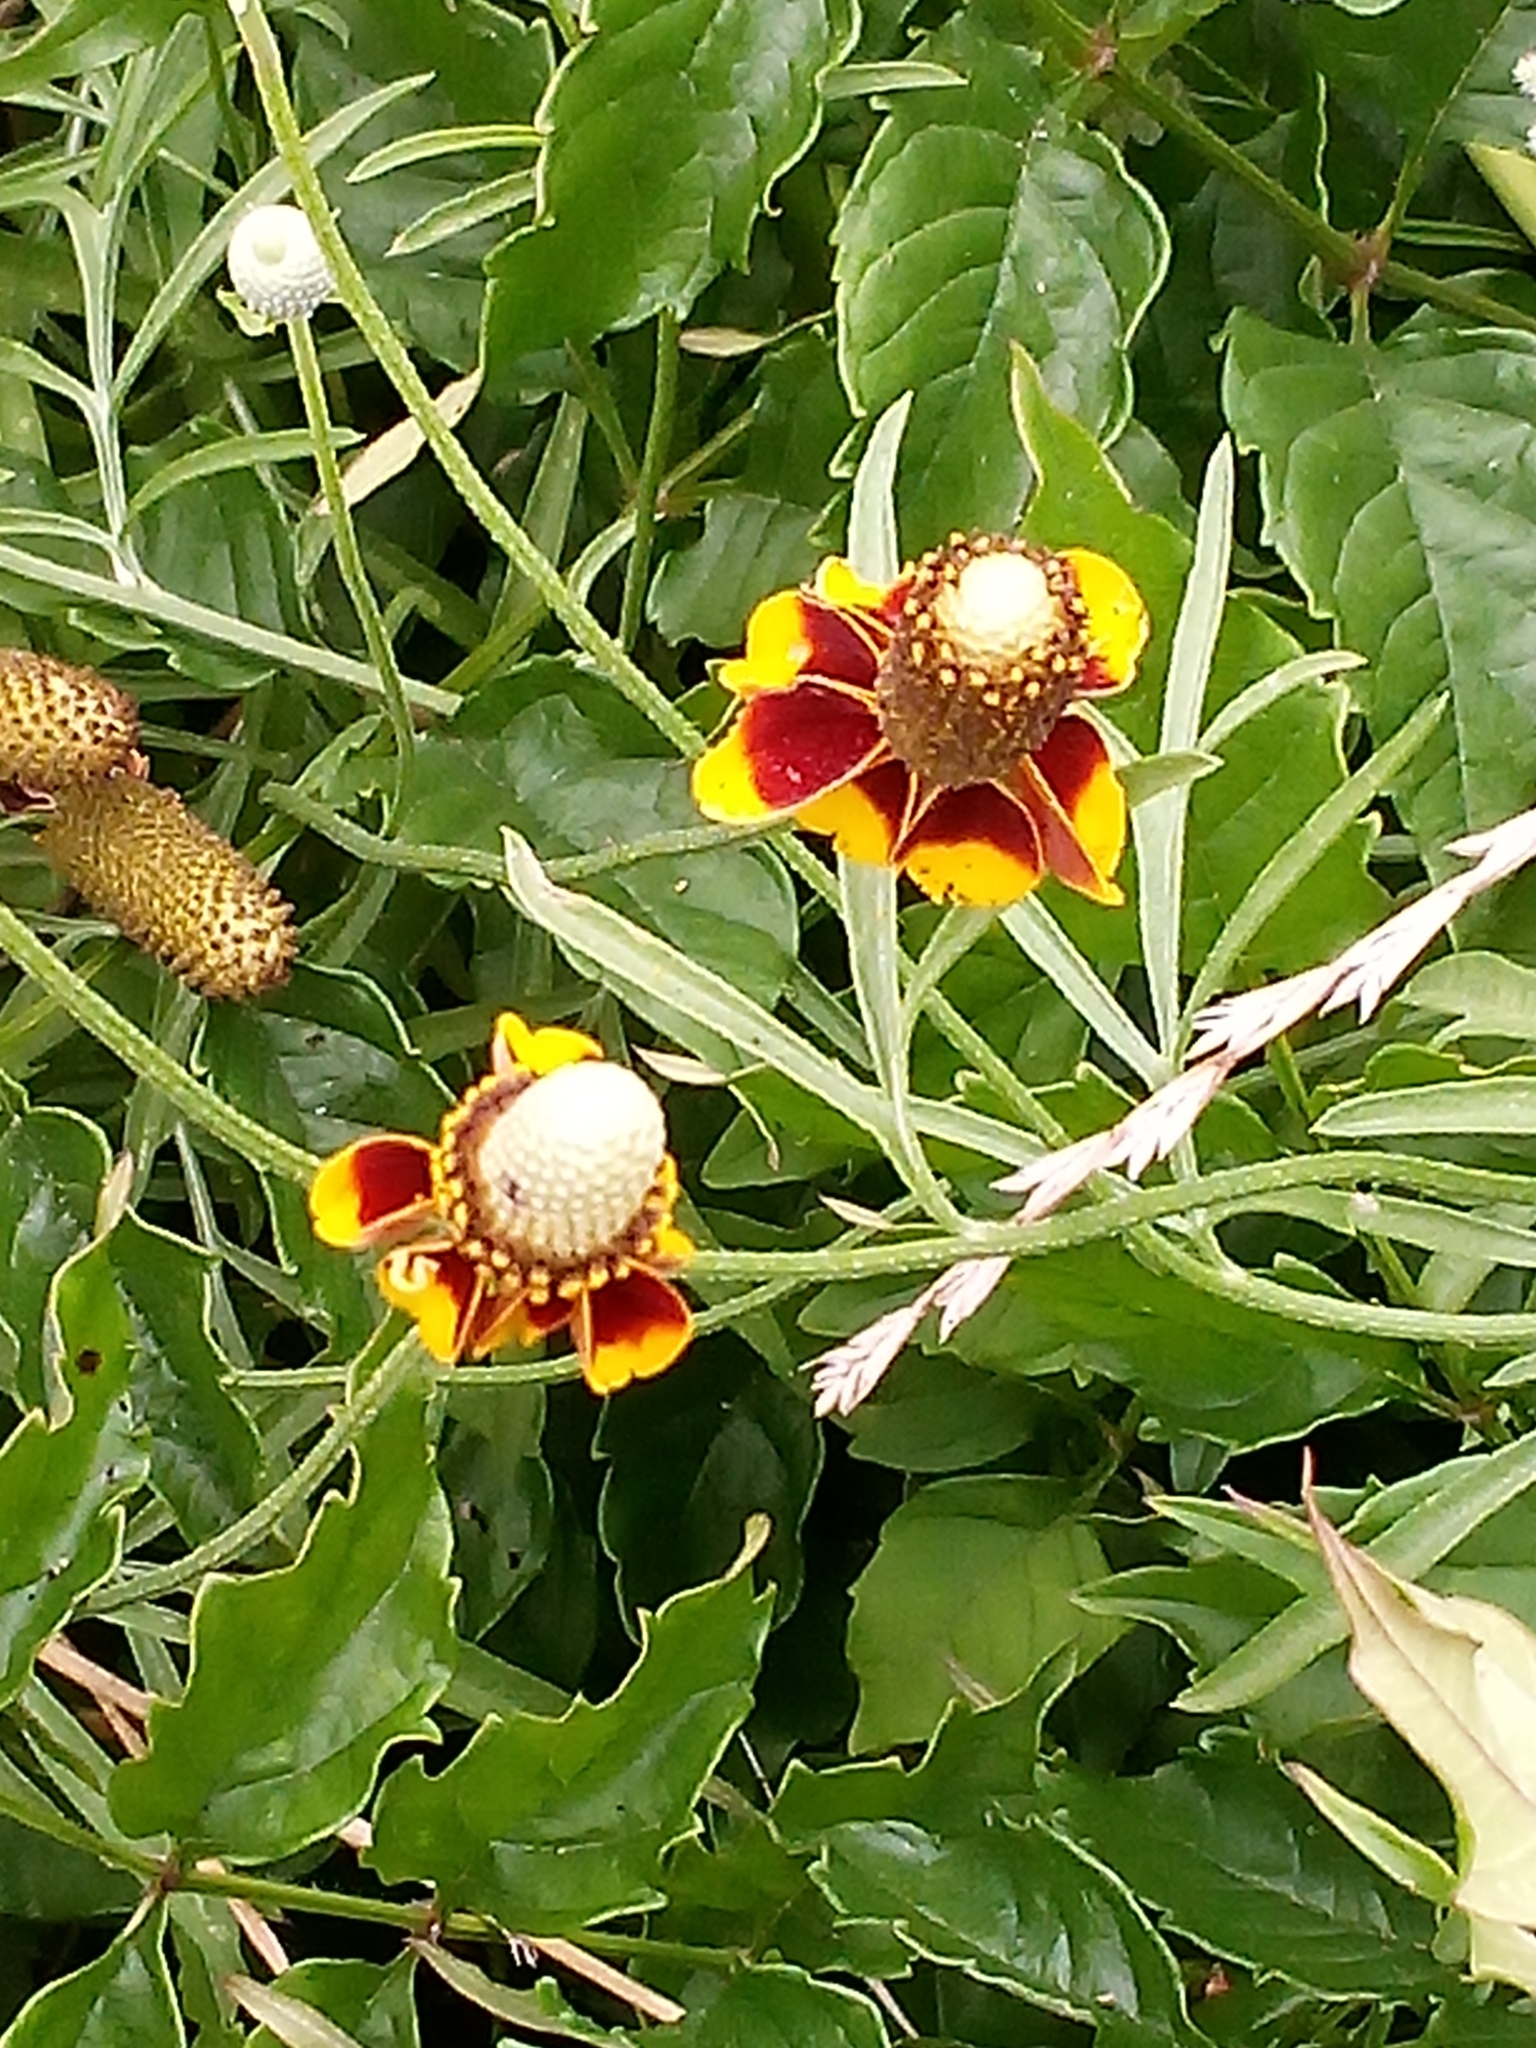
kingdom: Plantae
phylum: Tracheophyta
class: Magnoliopsida
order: Asterales
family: Asteraceae
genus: Ratibida
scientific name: Ratibida columnifera
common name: Prairie coneflower
